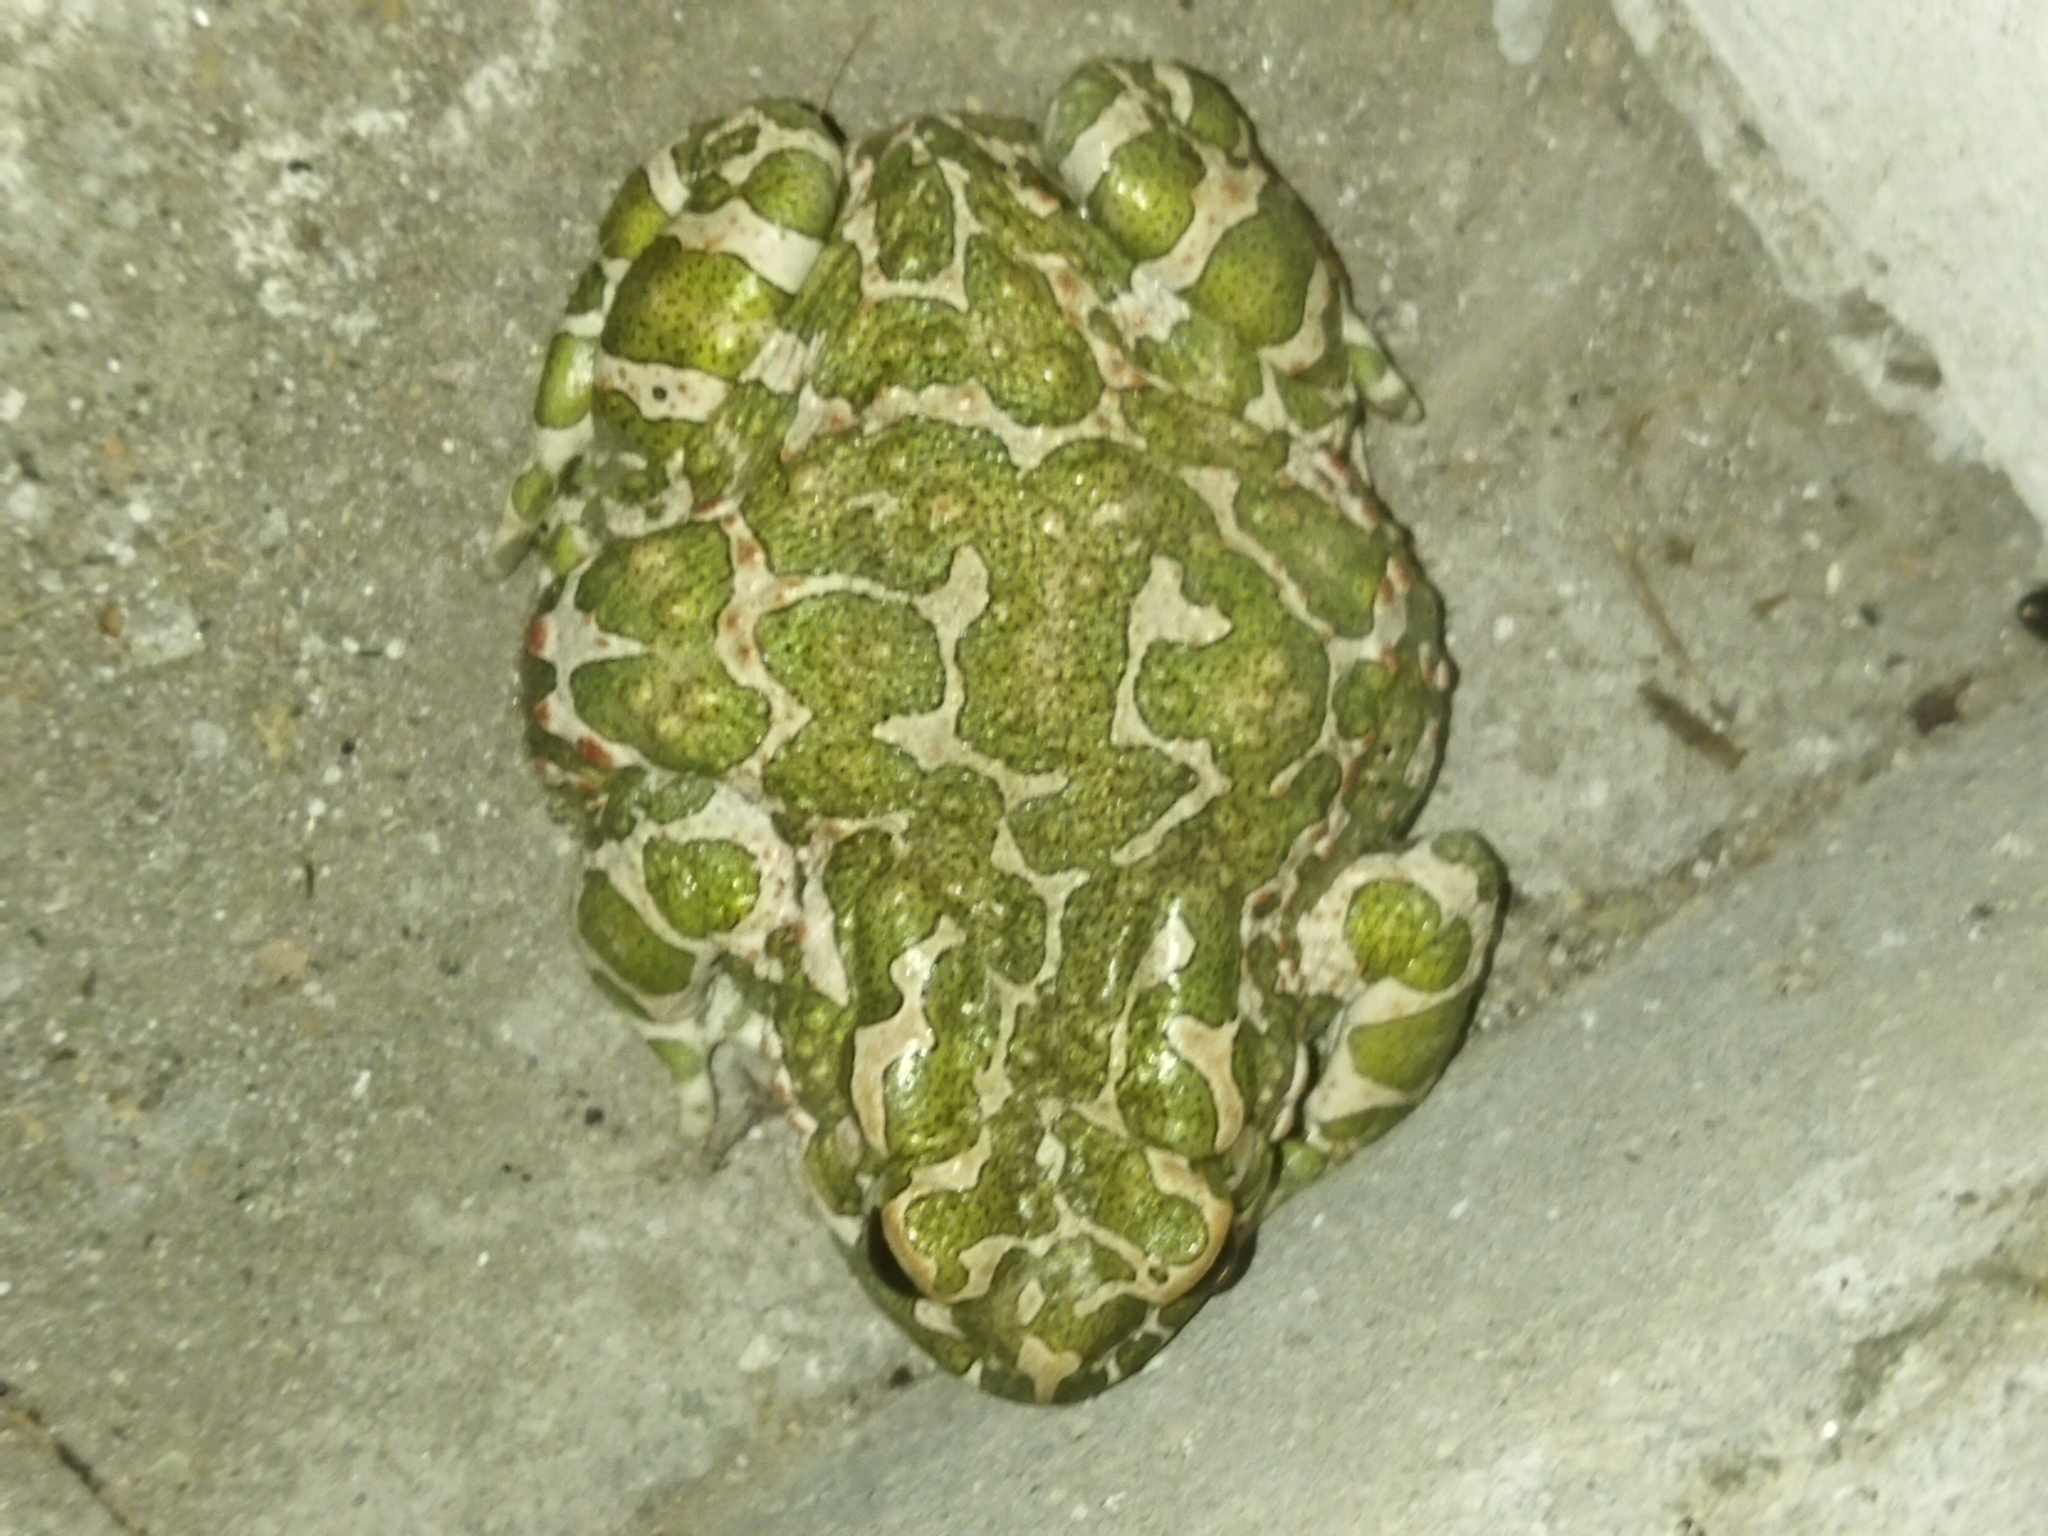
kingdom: Animalia
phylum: Chordata
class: Amphibia
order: Anura
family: Bufonidae
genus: Bufotes
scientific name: Bufotes viridis
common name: European green toad
